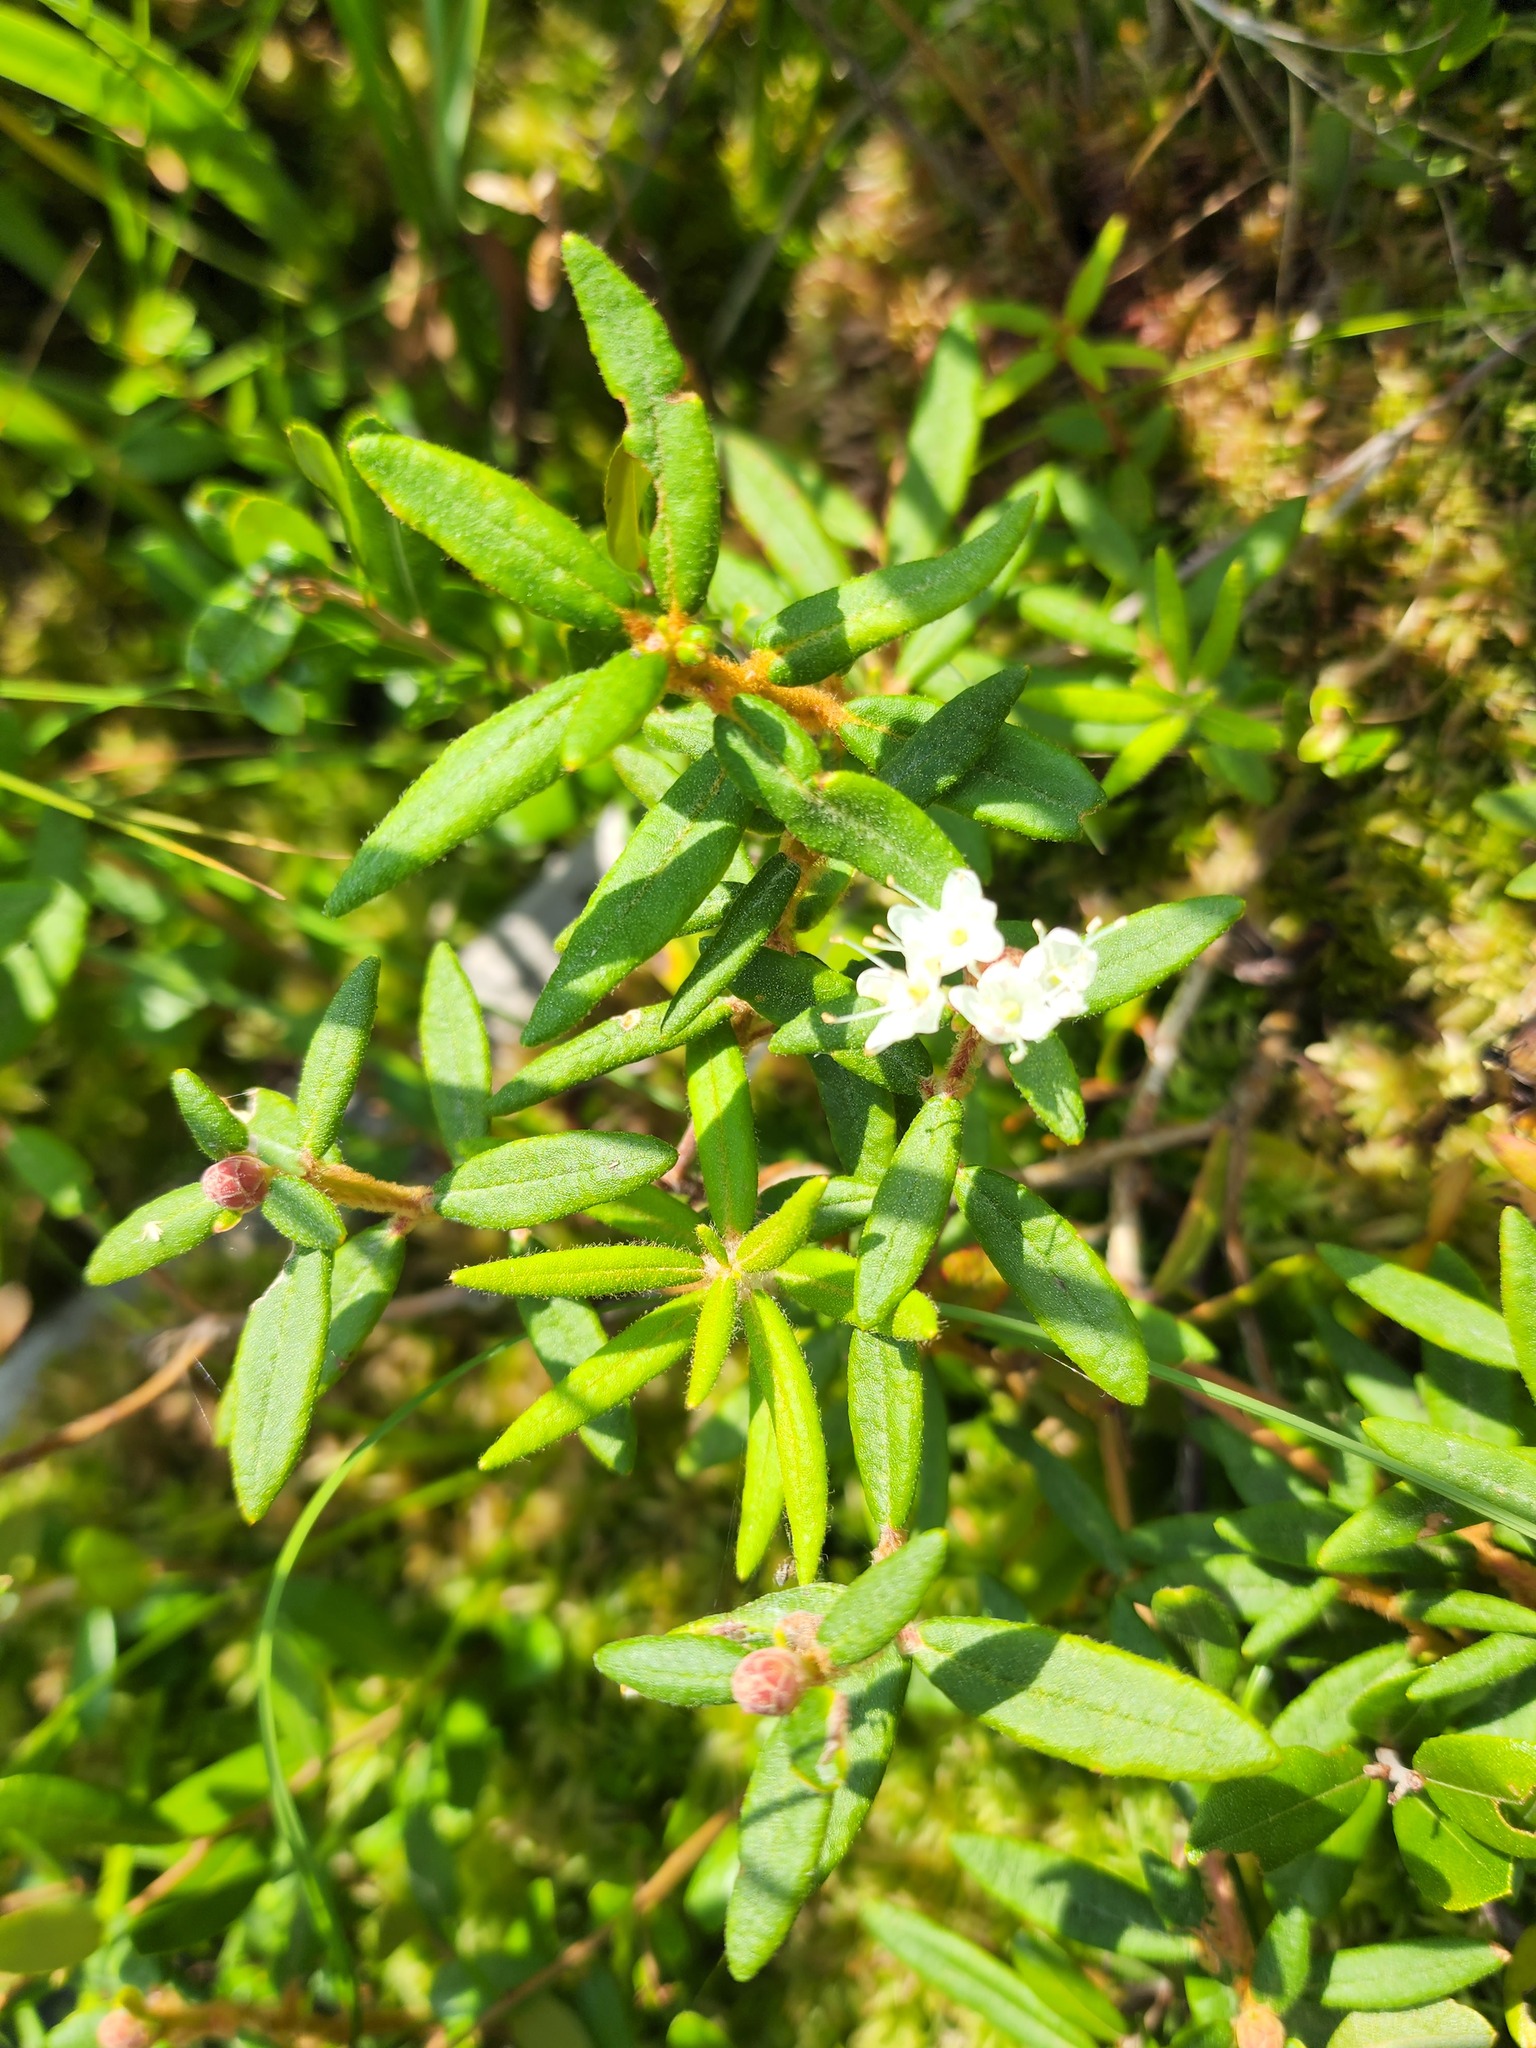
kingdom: Plantae
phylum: Tracheophyta
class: Magnoliopsida
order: Ericales
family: Ericaceae
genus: Rhododendron
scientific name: Rhododendron groenlandicum
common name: Bog labrador tea
